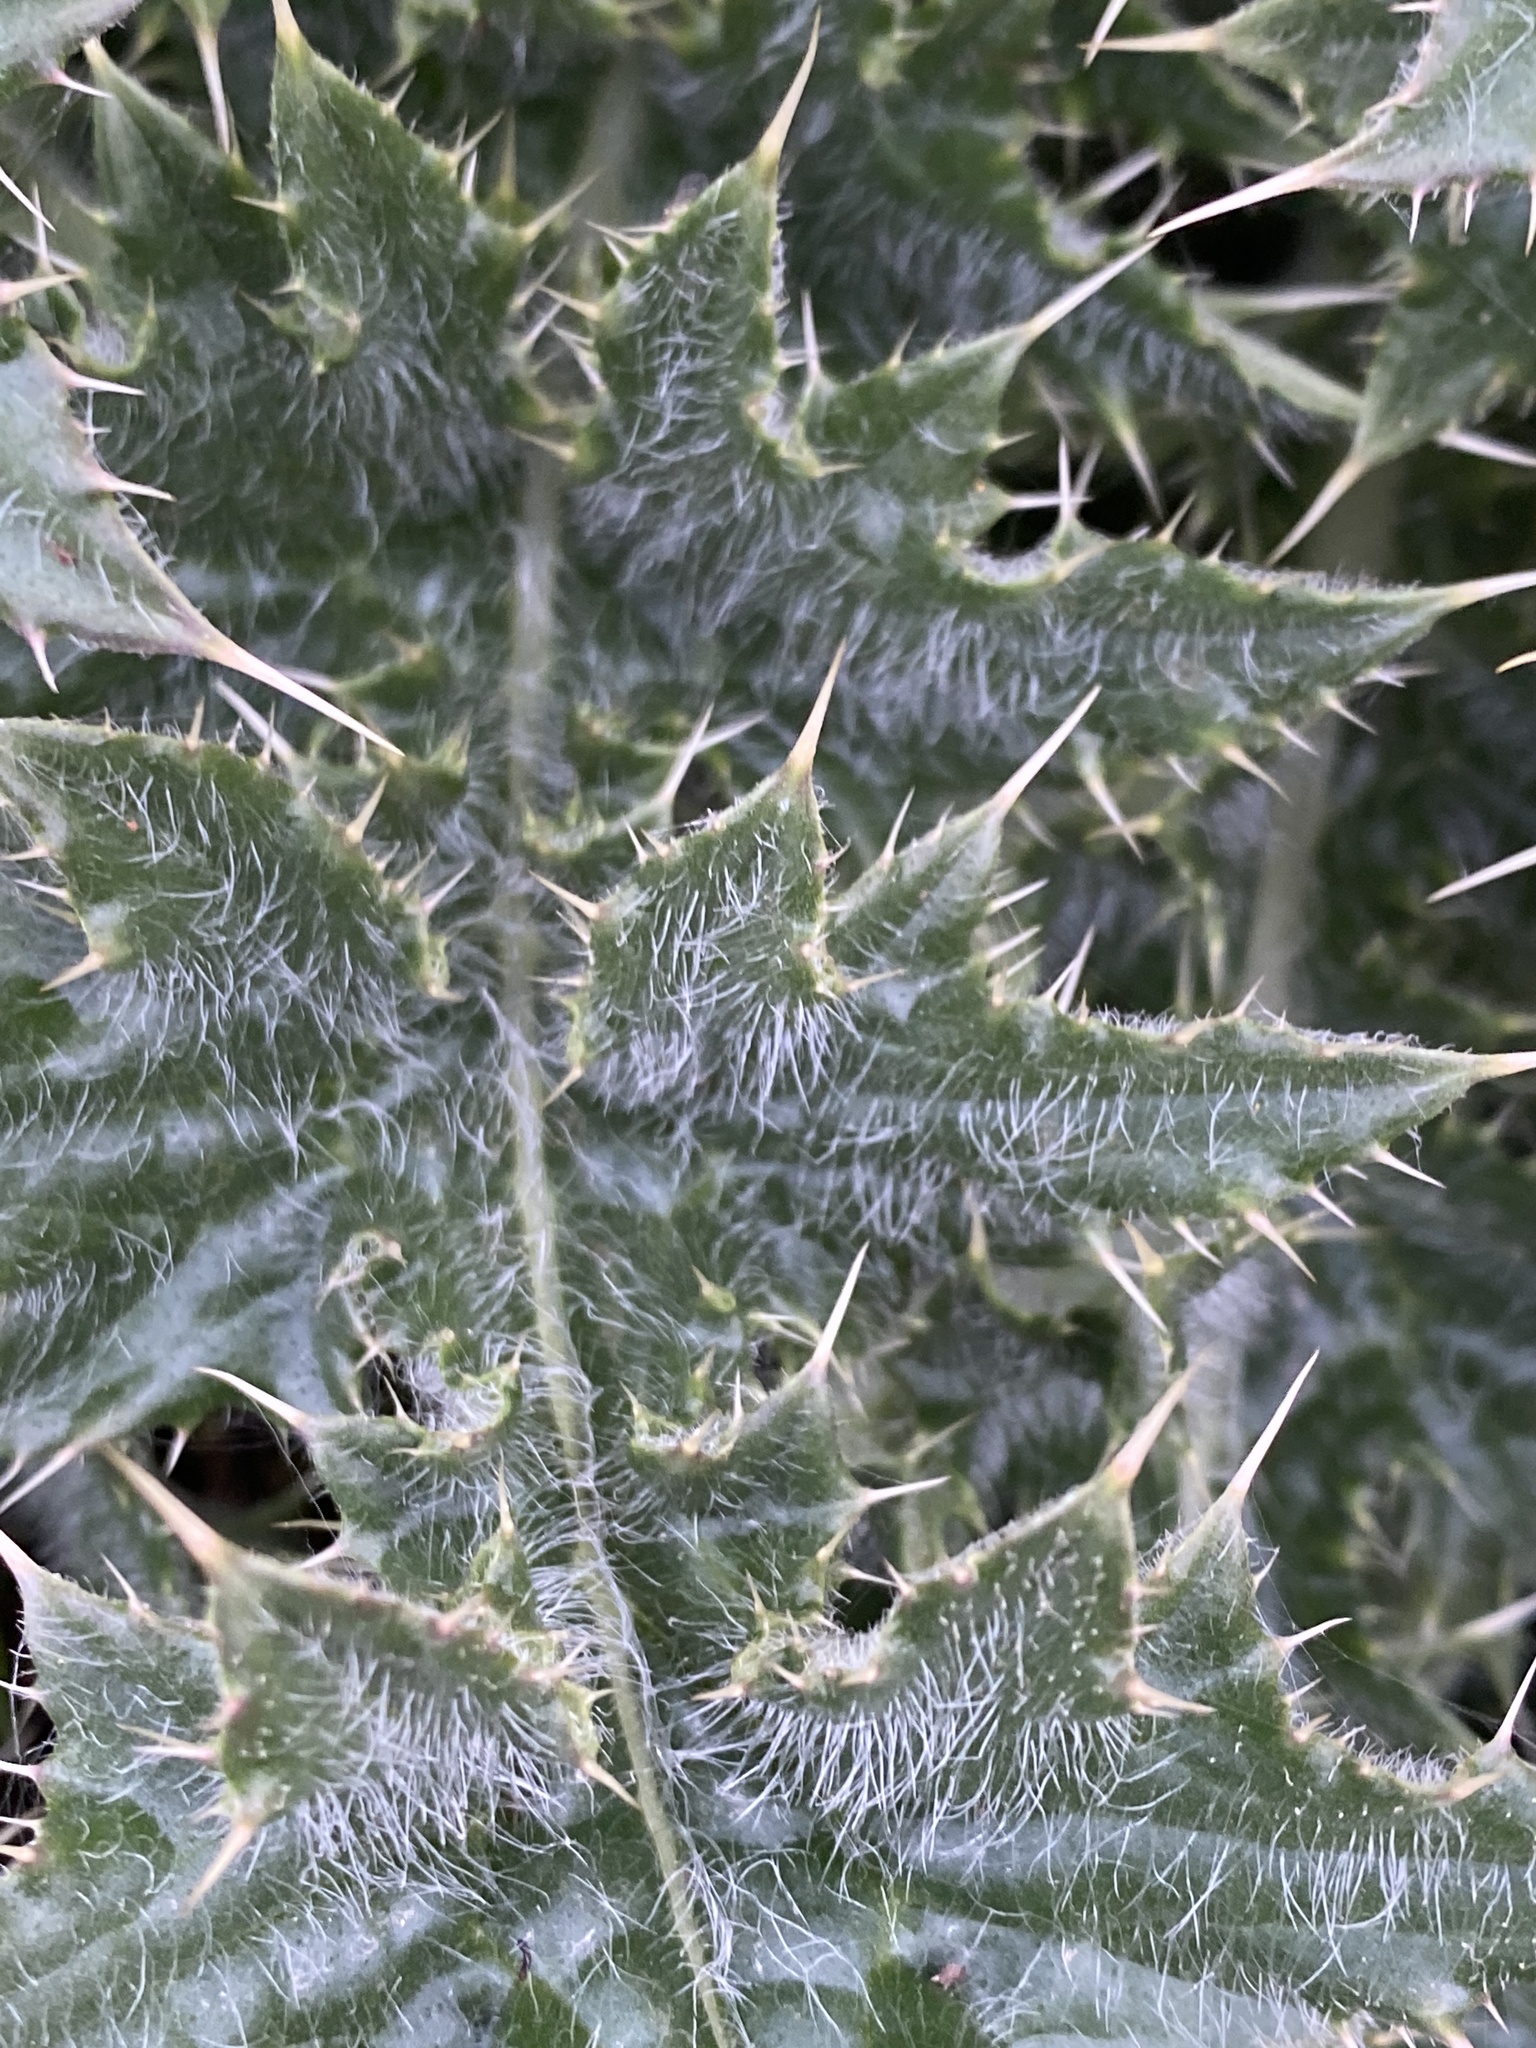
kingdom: Plantae
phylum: Tracheophyta
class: Magnoliopsida
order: Asterales
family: Asteraceae
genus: Cirsium
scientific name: Cirsium horridulum
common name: Bristly thistle
